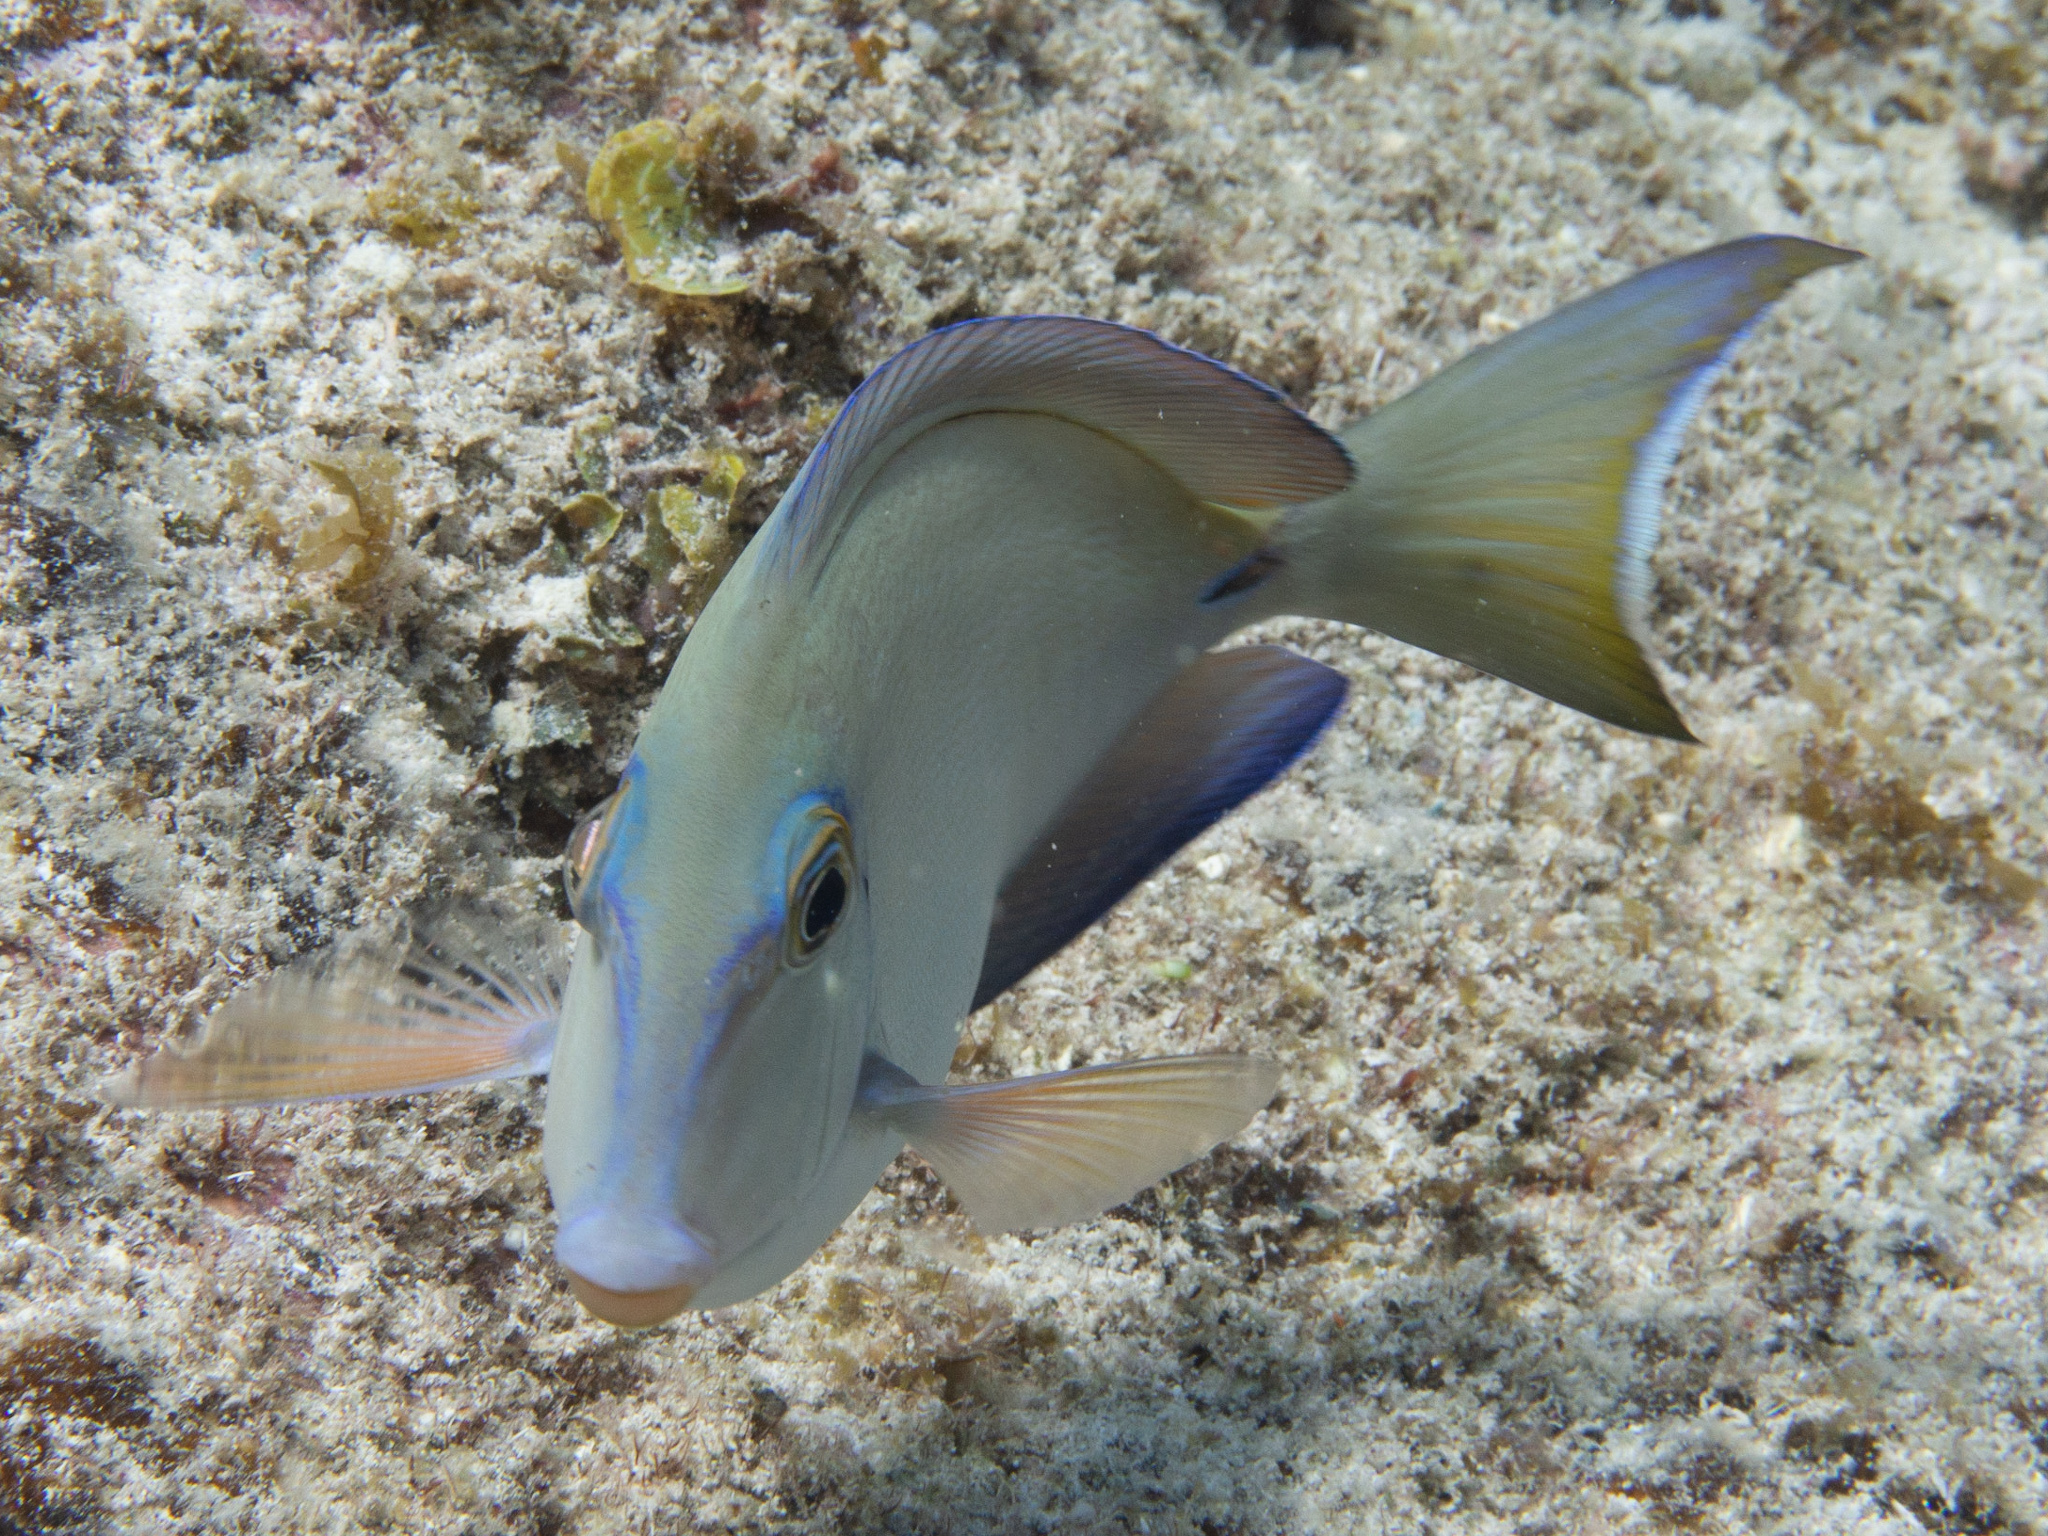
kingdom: Animalia
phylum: Chordata
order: Perciformes
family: Acanthuridae
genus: Acanthurus
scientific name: Acanthurus bahianus
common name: Ocean surgeon
